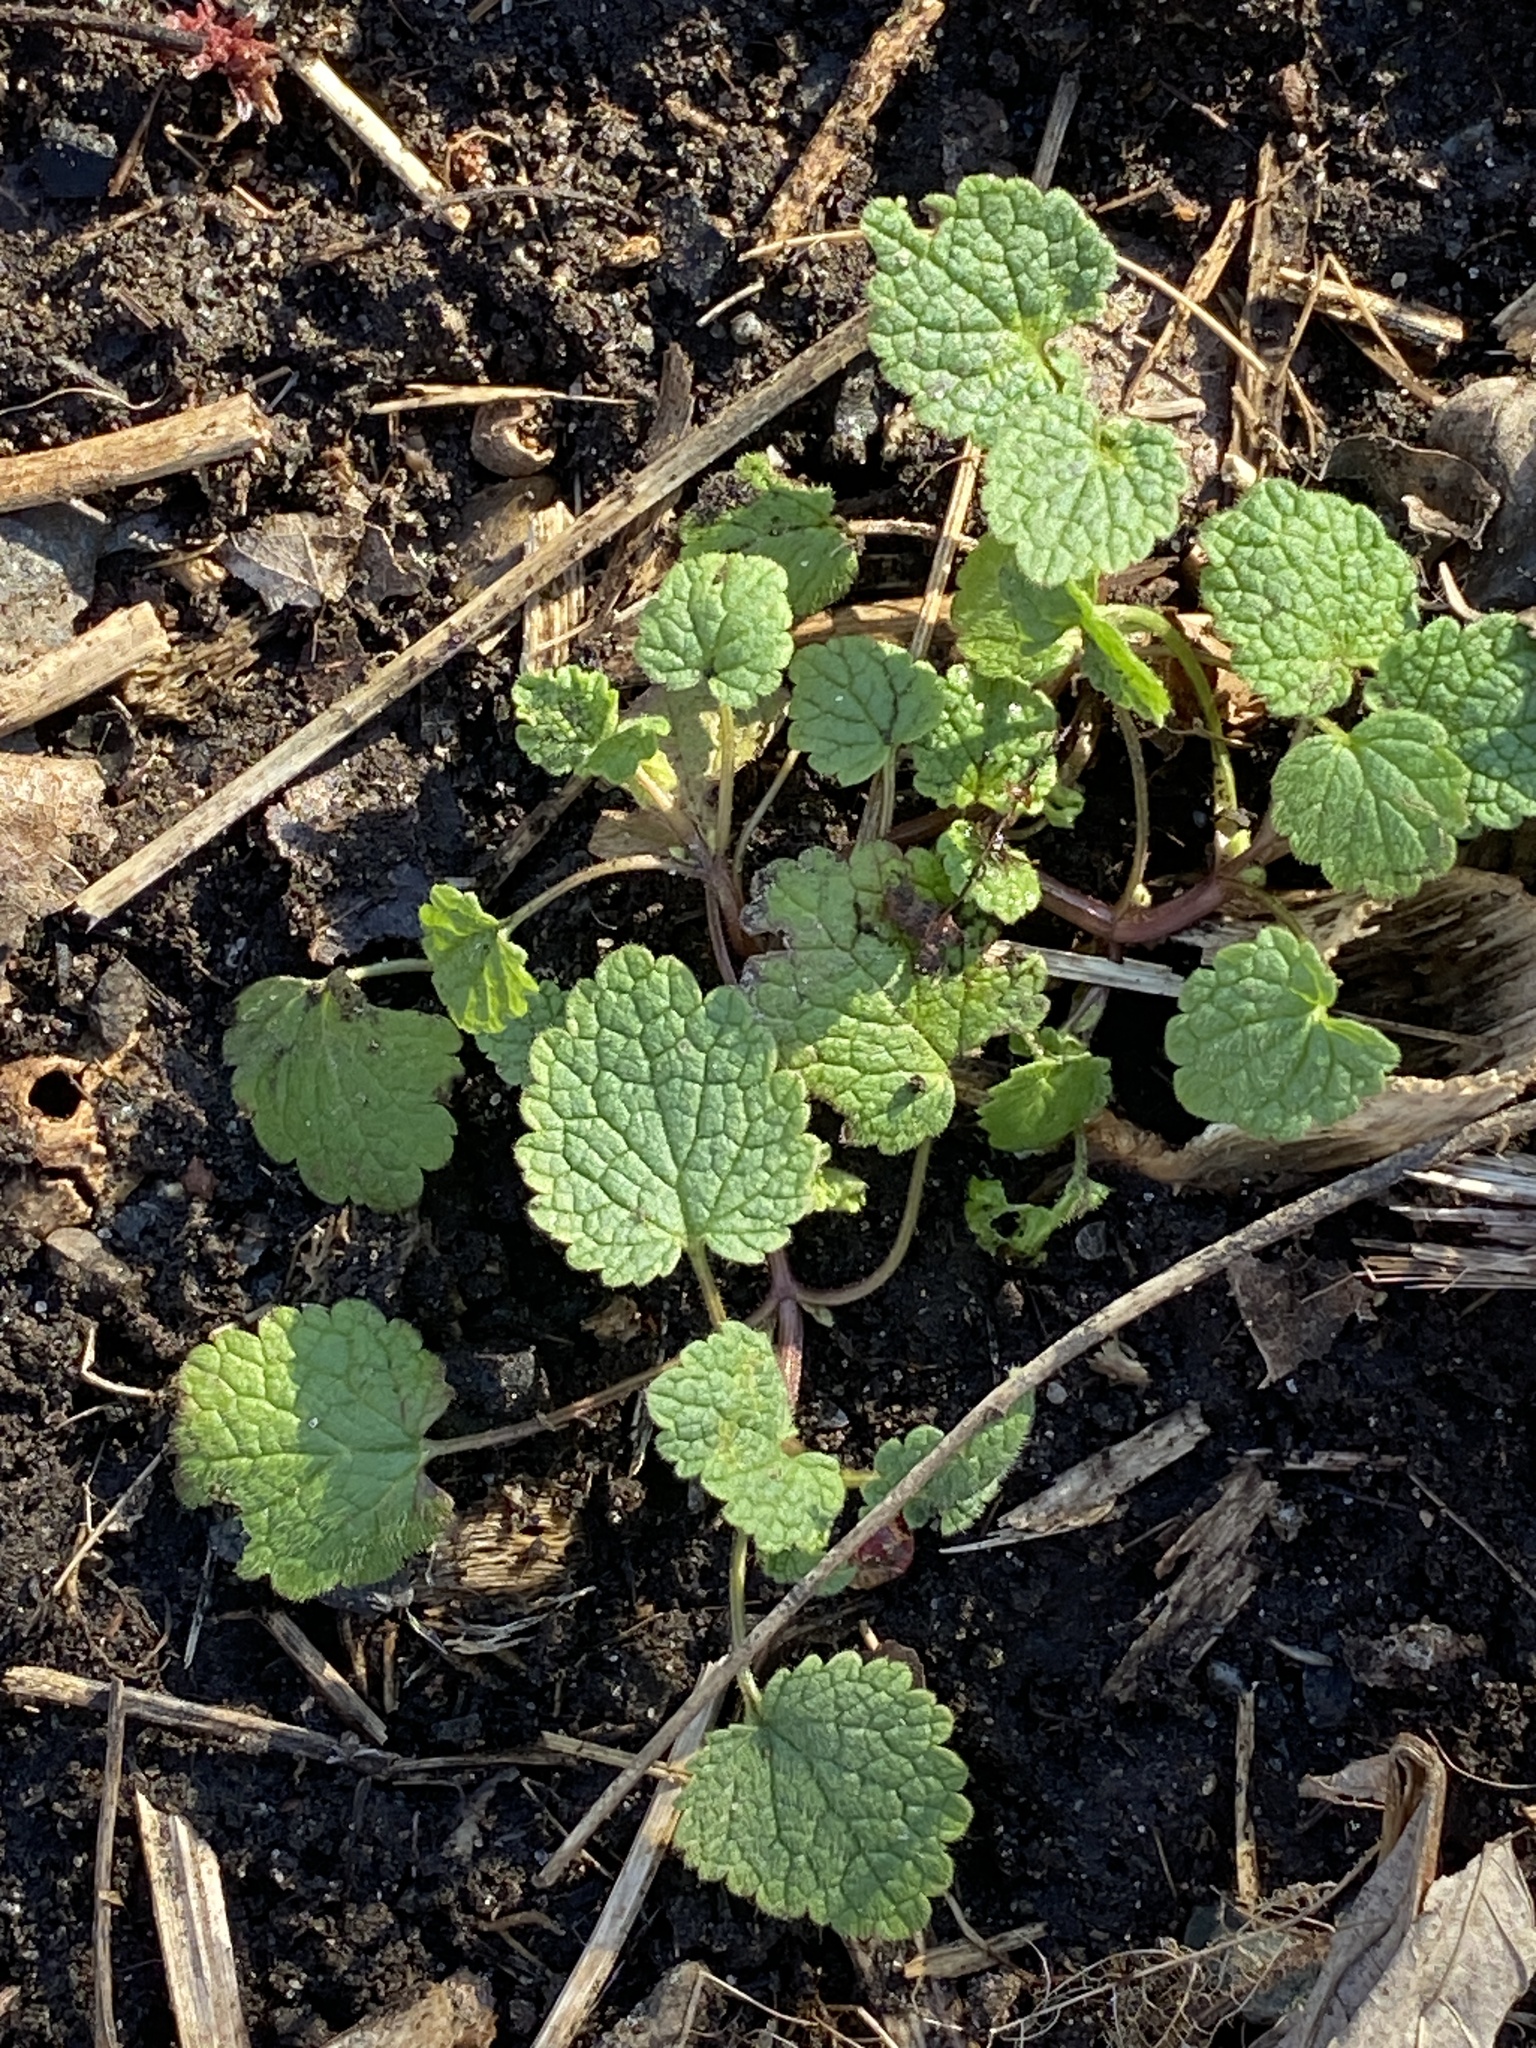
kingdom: Plantae
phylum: Tracheophyta
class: Magnoliopsida
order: Lamiales
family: Lamiaceae
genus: Lamium
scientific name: Lamium purpureum
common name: Red dead-nettle
